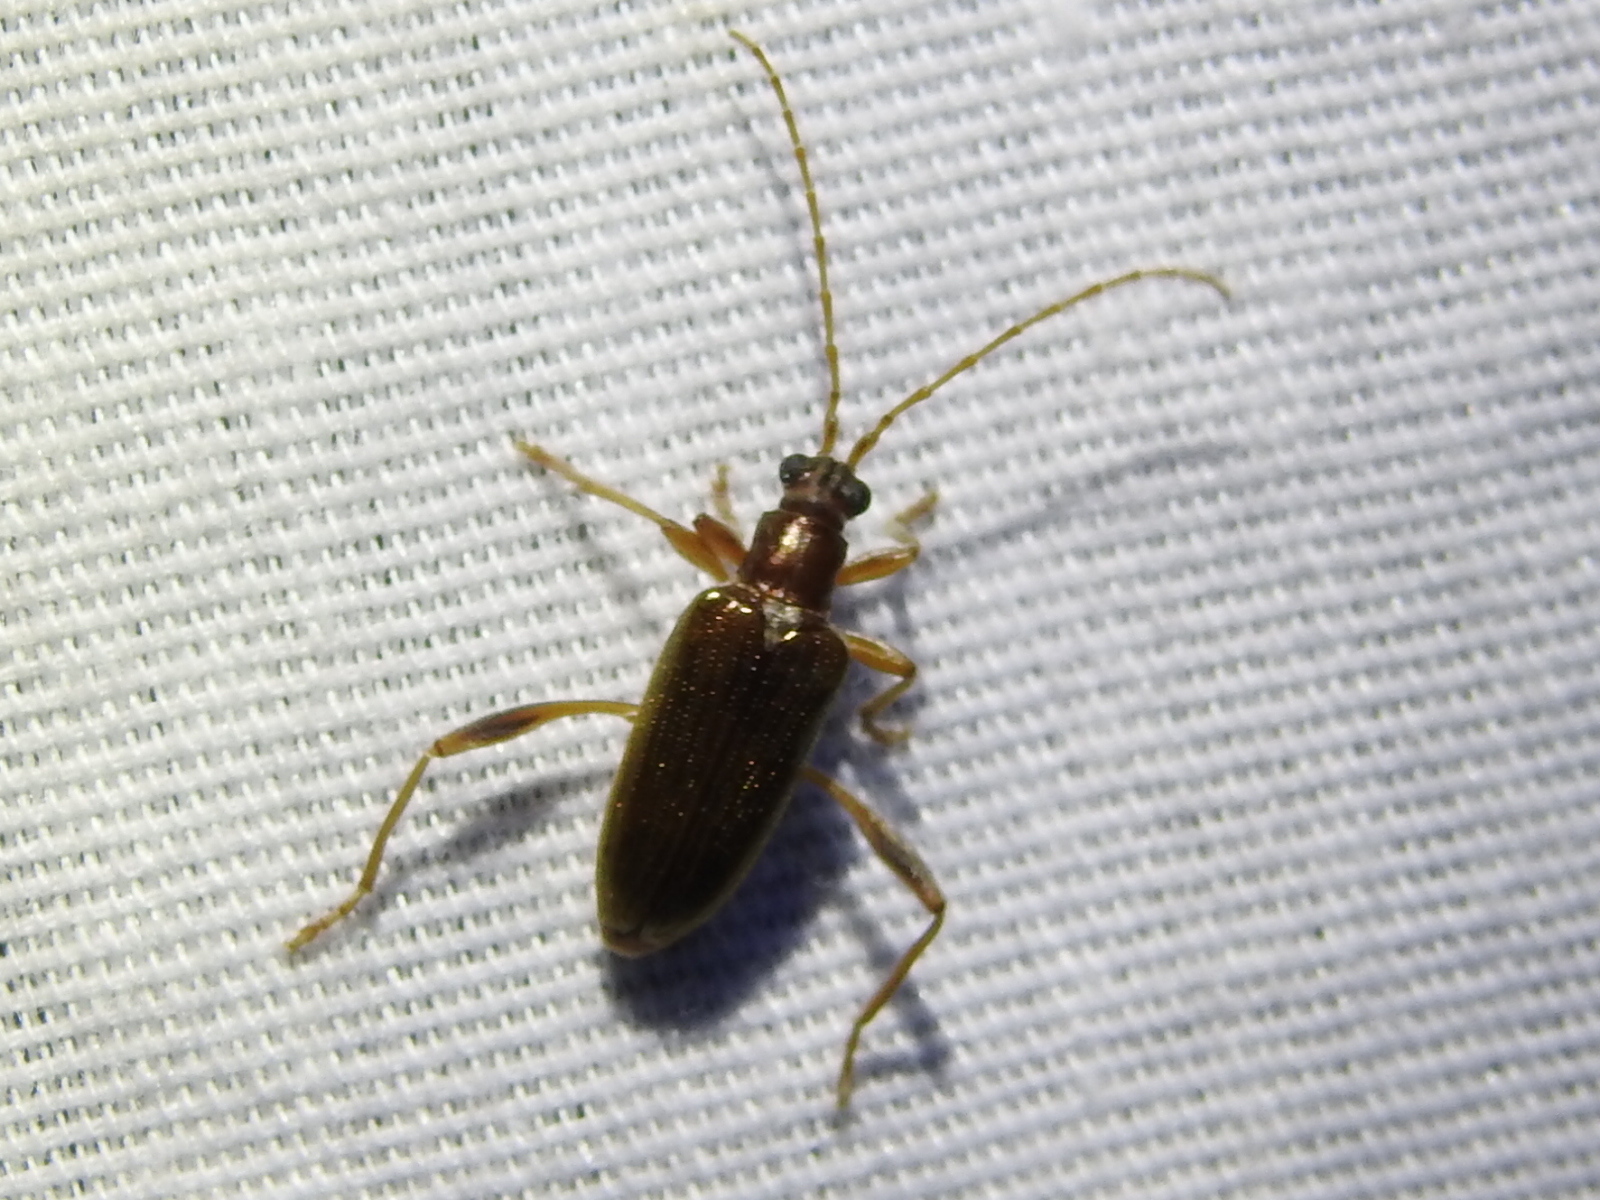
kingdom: Animalia
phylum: Arthropoda
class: Insecta
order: Coleoptera
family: Chrysomelidae
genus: Donacia
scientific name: Donacia hypoleuca
